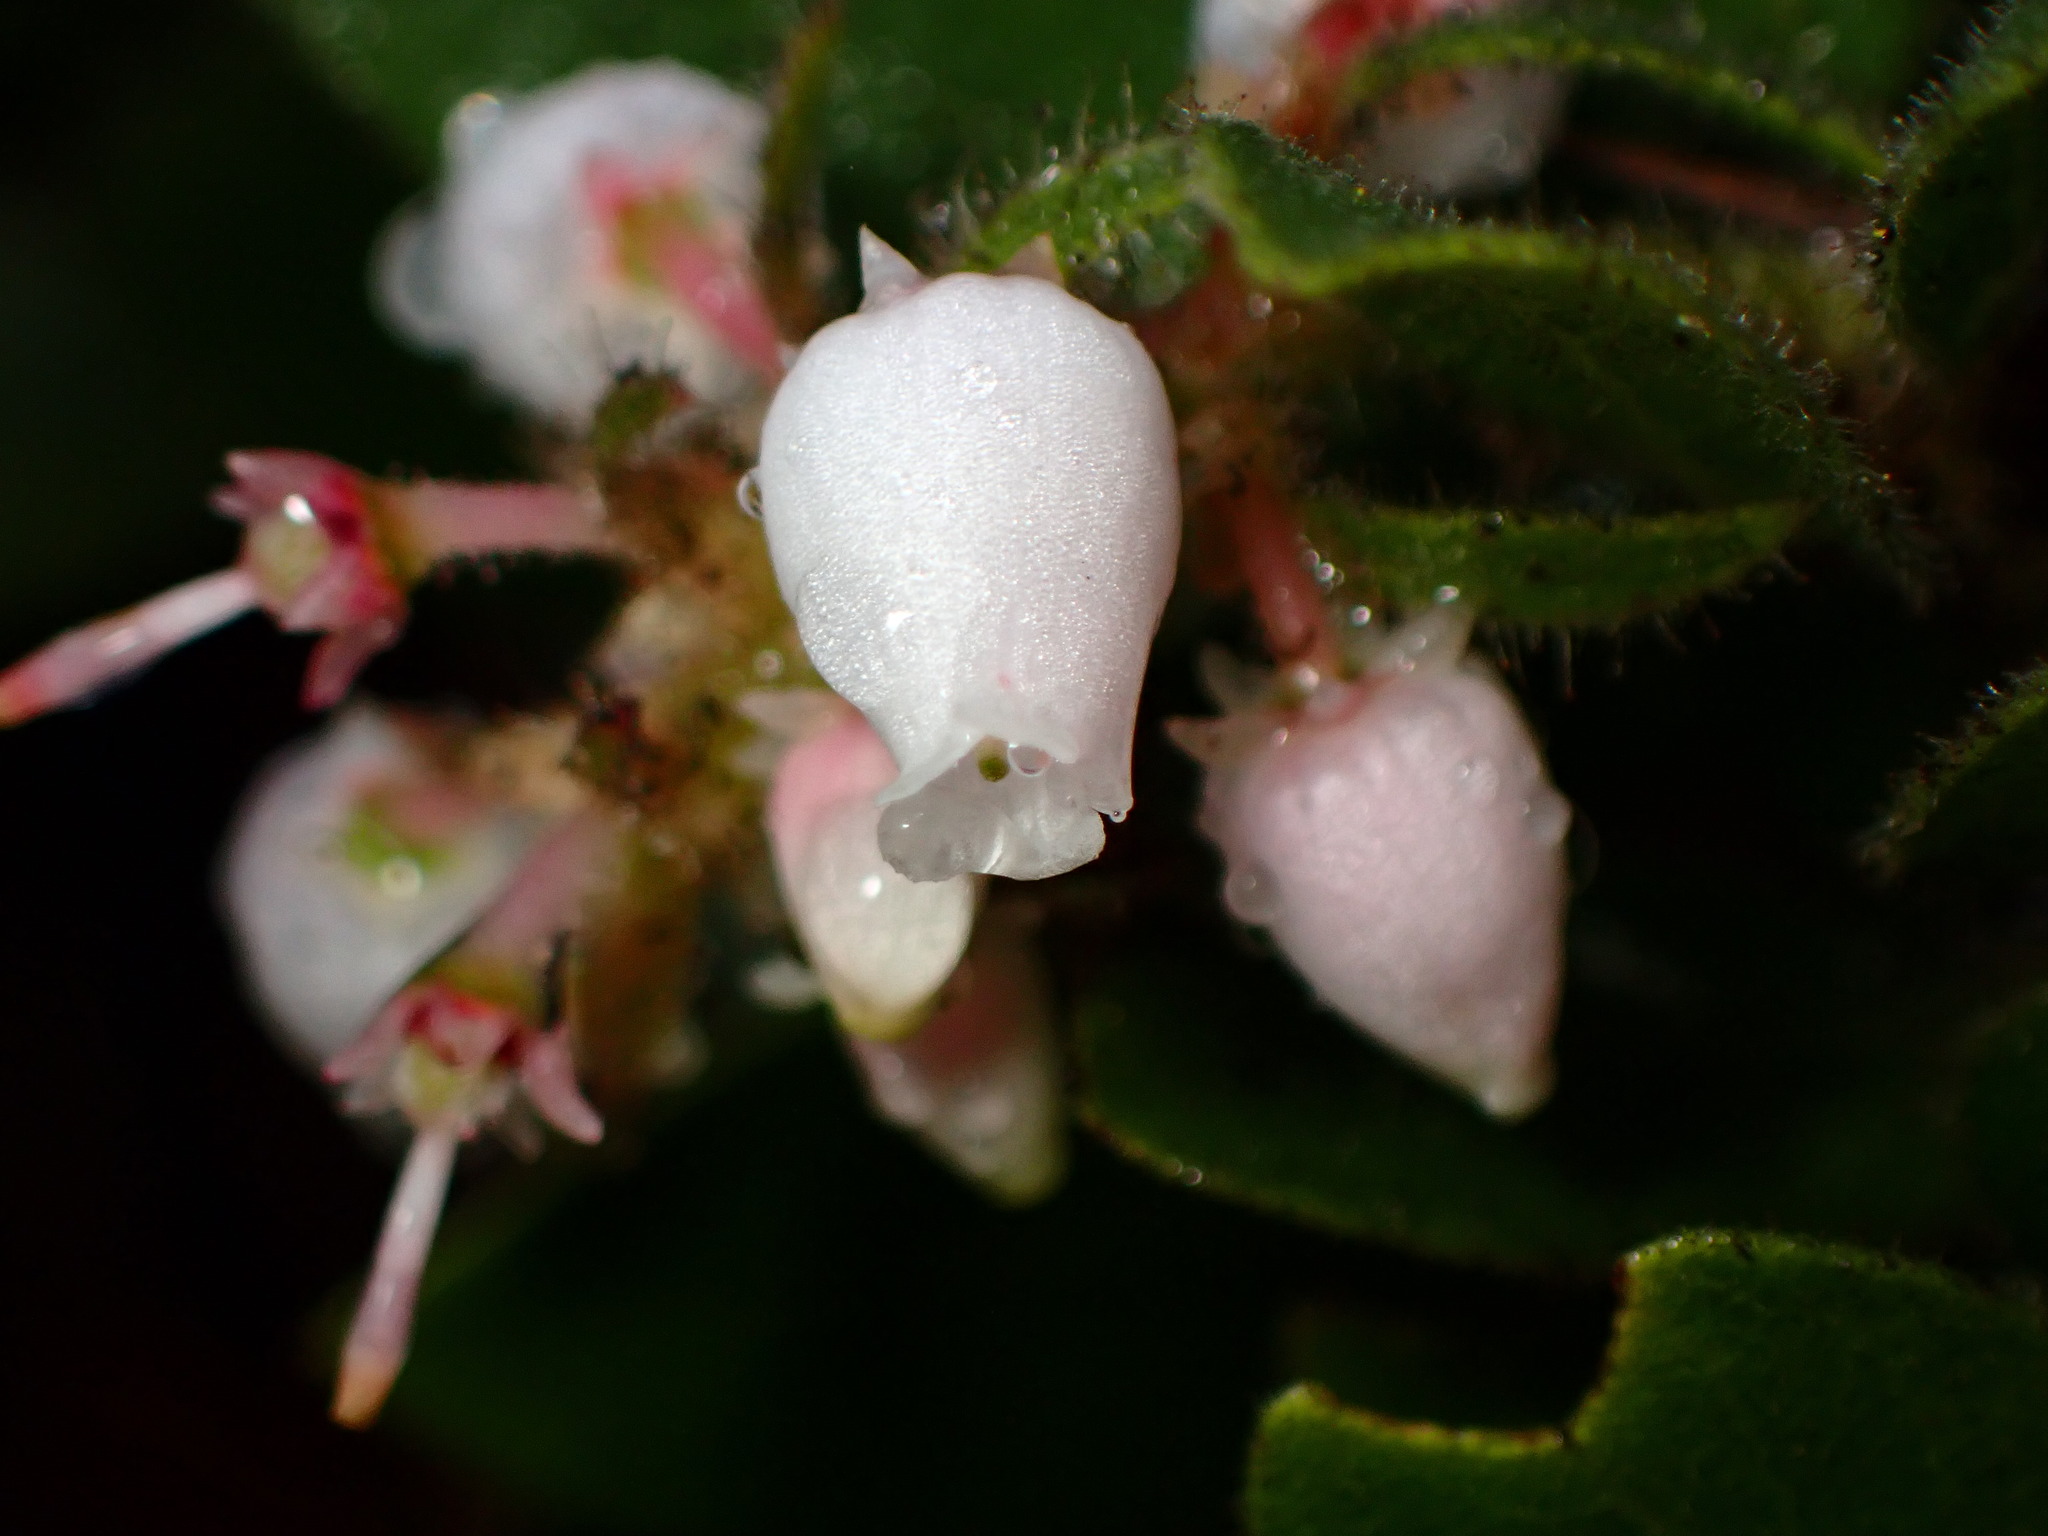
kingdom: Plantae
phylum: Tracheophyta
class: Magnoliopsida
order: Ericales
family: Ericaceae
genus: Arctostaphylos
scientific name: Arctostaphylos montereyensis
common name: Monterey manzanita
